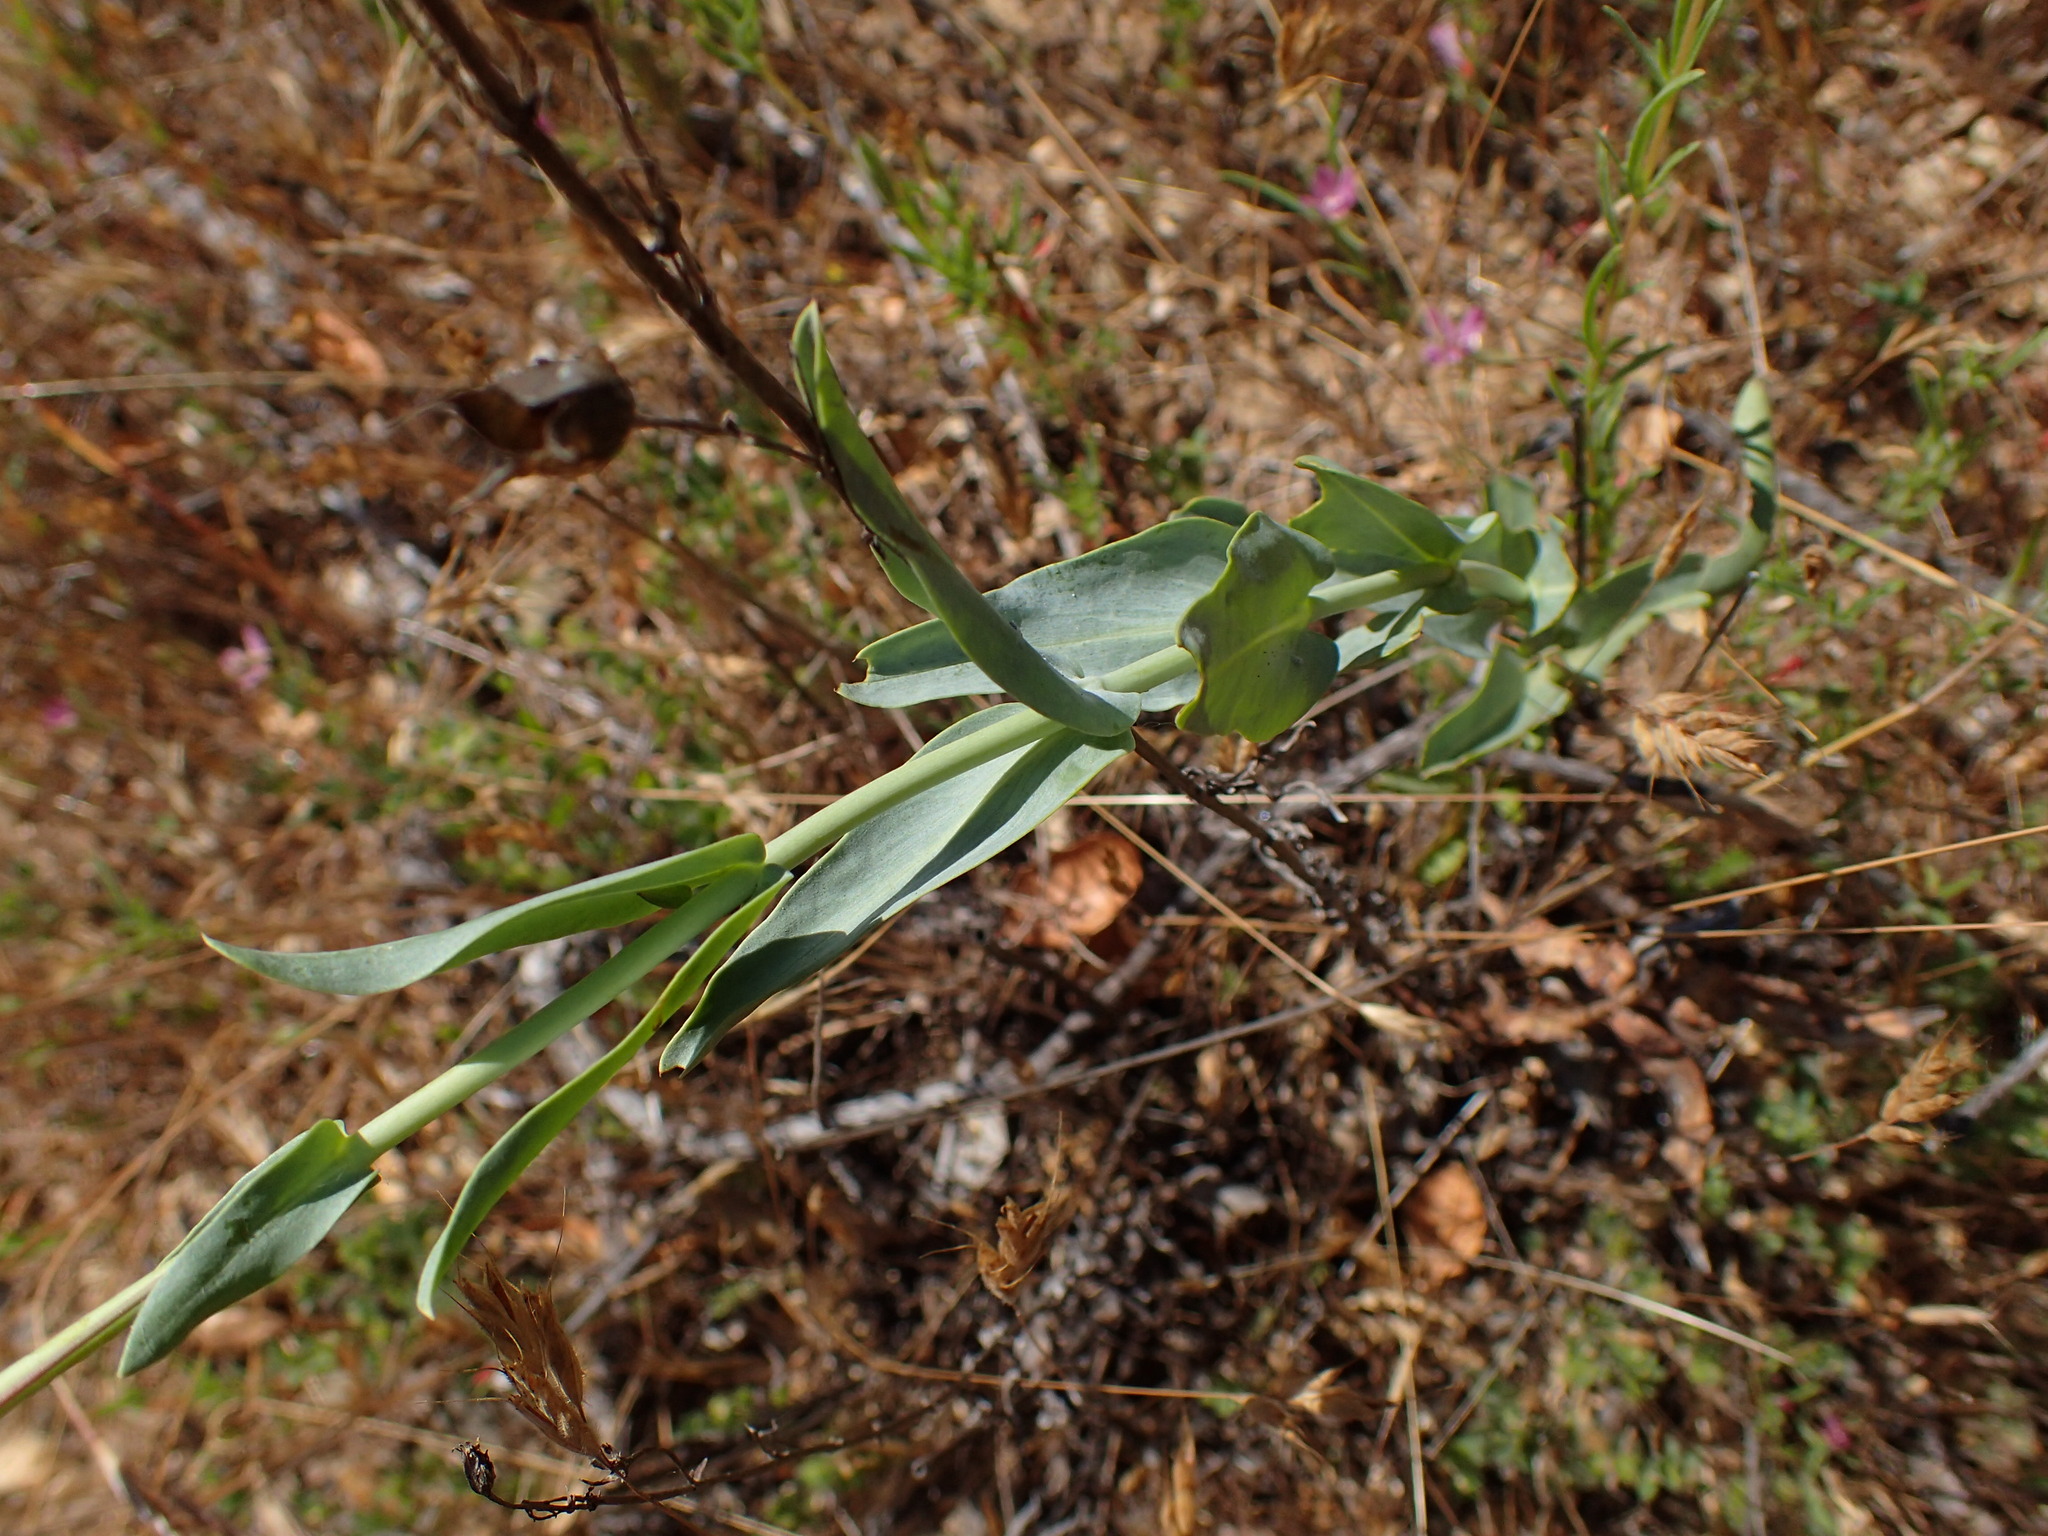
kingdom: Plantae
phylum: Tracheophyta
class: Magnoliopsida
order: Lamiales
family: Plantaginaceae
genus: Penstemon
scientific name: Penstemon centranthifolius
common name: Scarlet bugler
